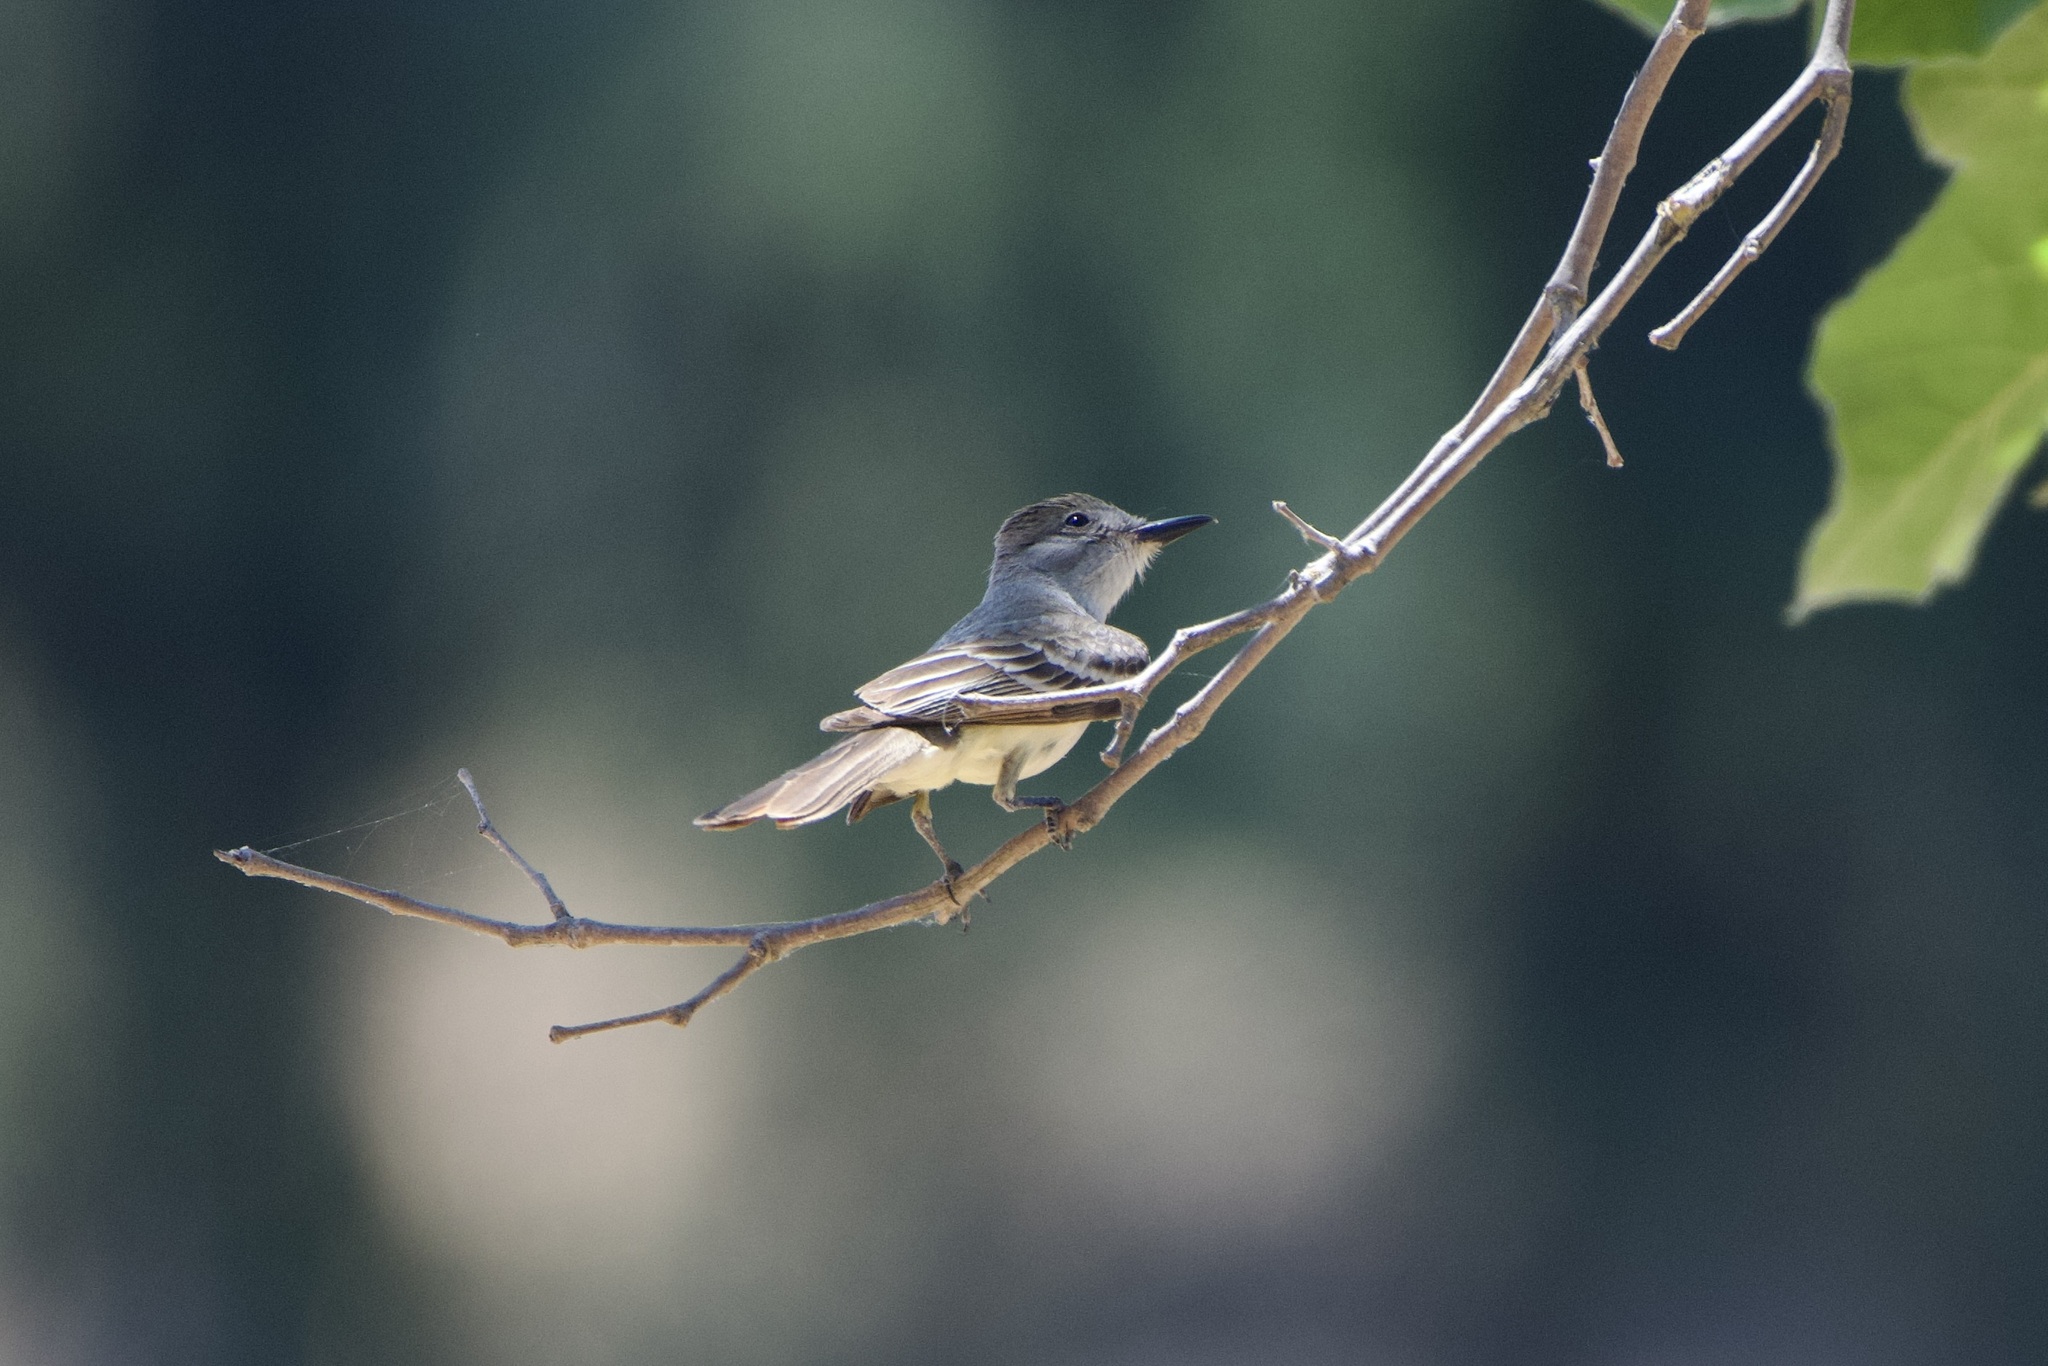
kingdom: Animalia
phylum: Chordata
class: Aves
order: Passeriformes
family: Tyrannidae
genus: Myiarchus
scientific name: Myiarchus cinerascens
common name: Ash-throated flycatcher
